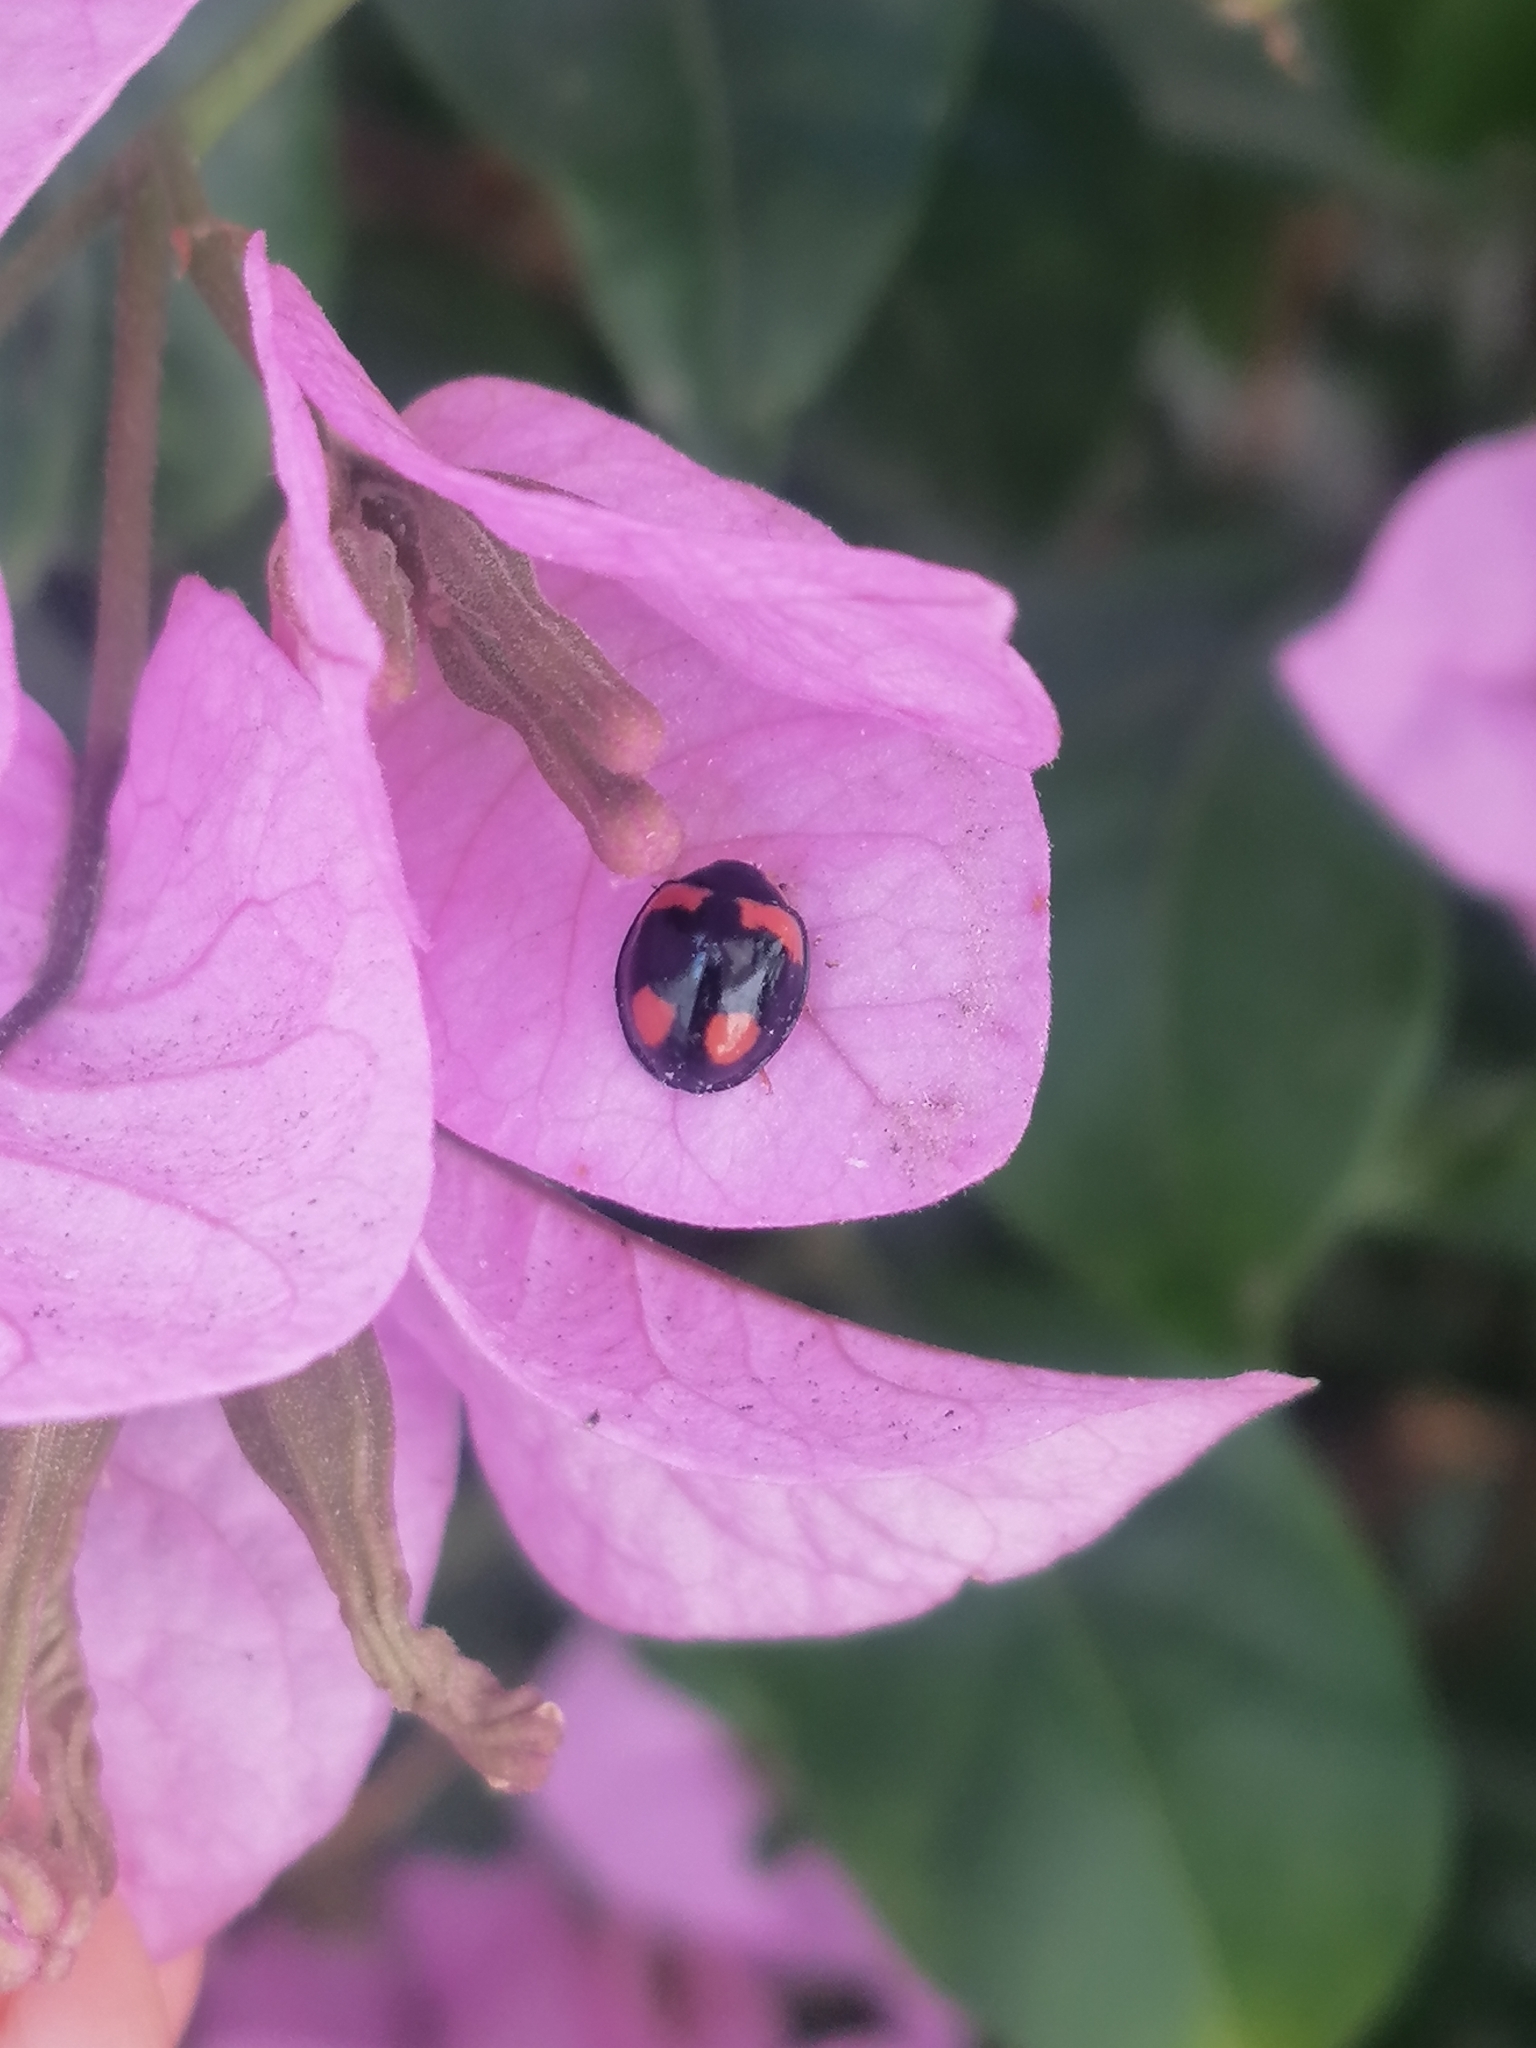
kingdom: Animalia
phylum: Arthropoda
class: Insecta
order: Coleoptera
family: Coccinellidae
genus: Cheilomenes
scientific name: Cheilomenes sexmaculata
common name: Ladybird beetle
